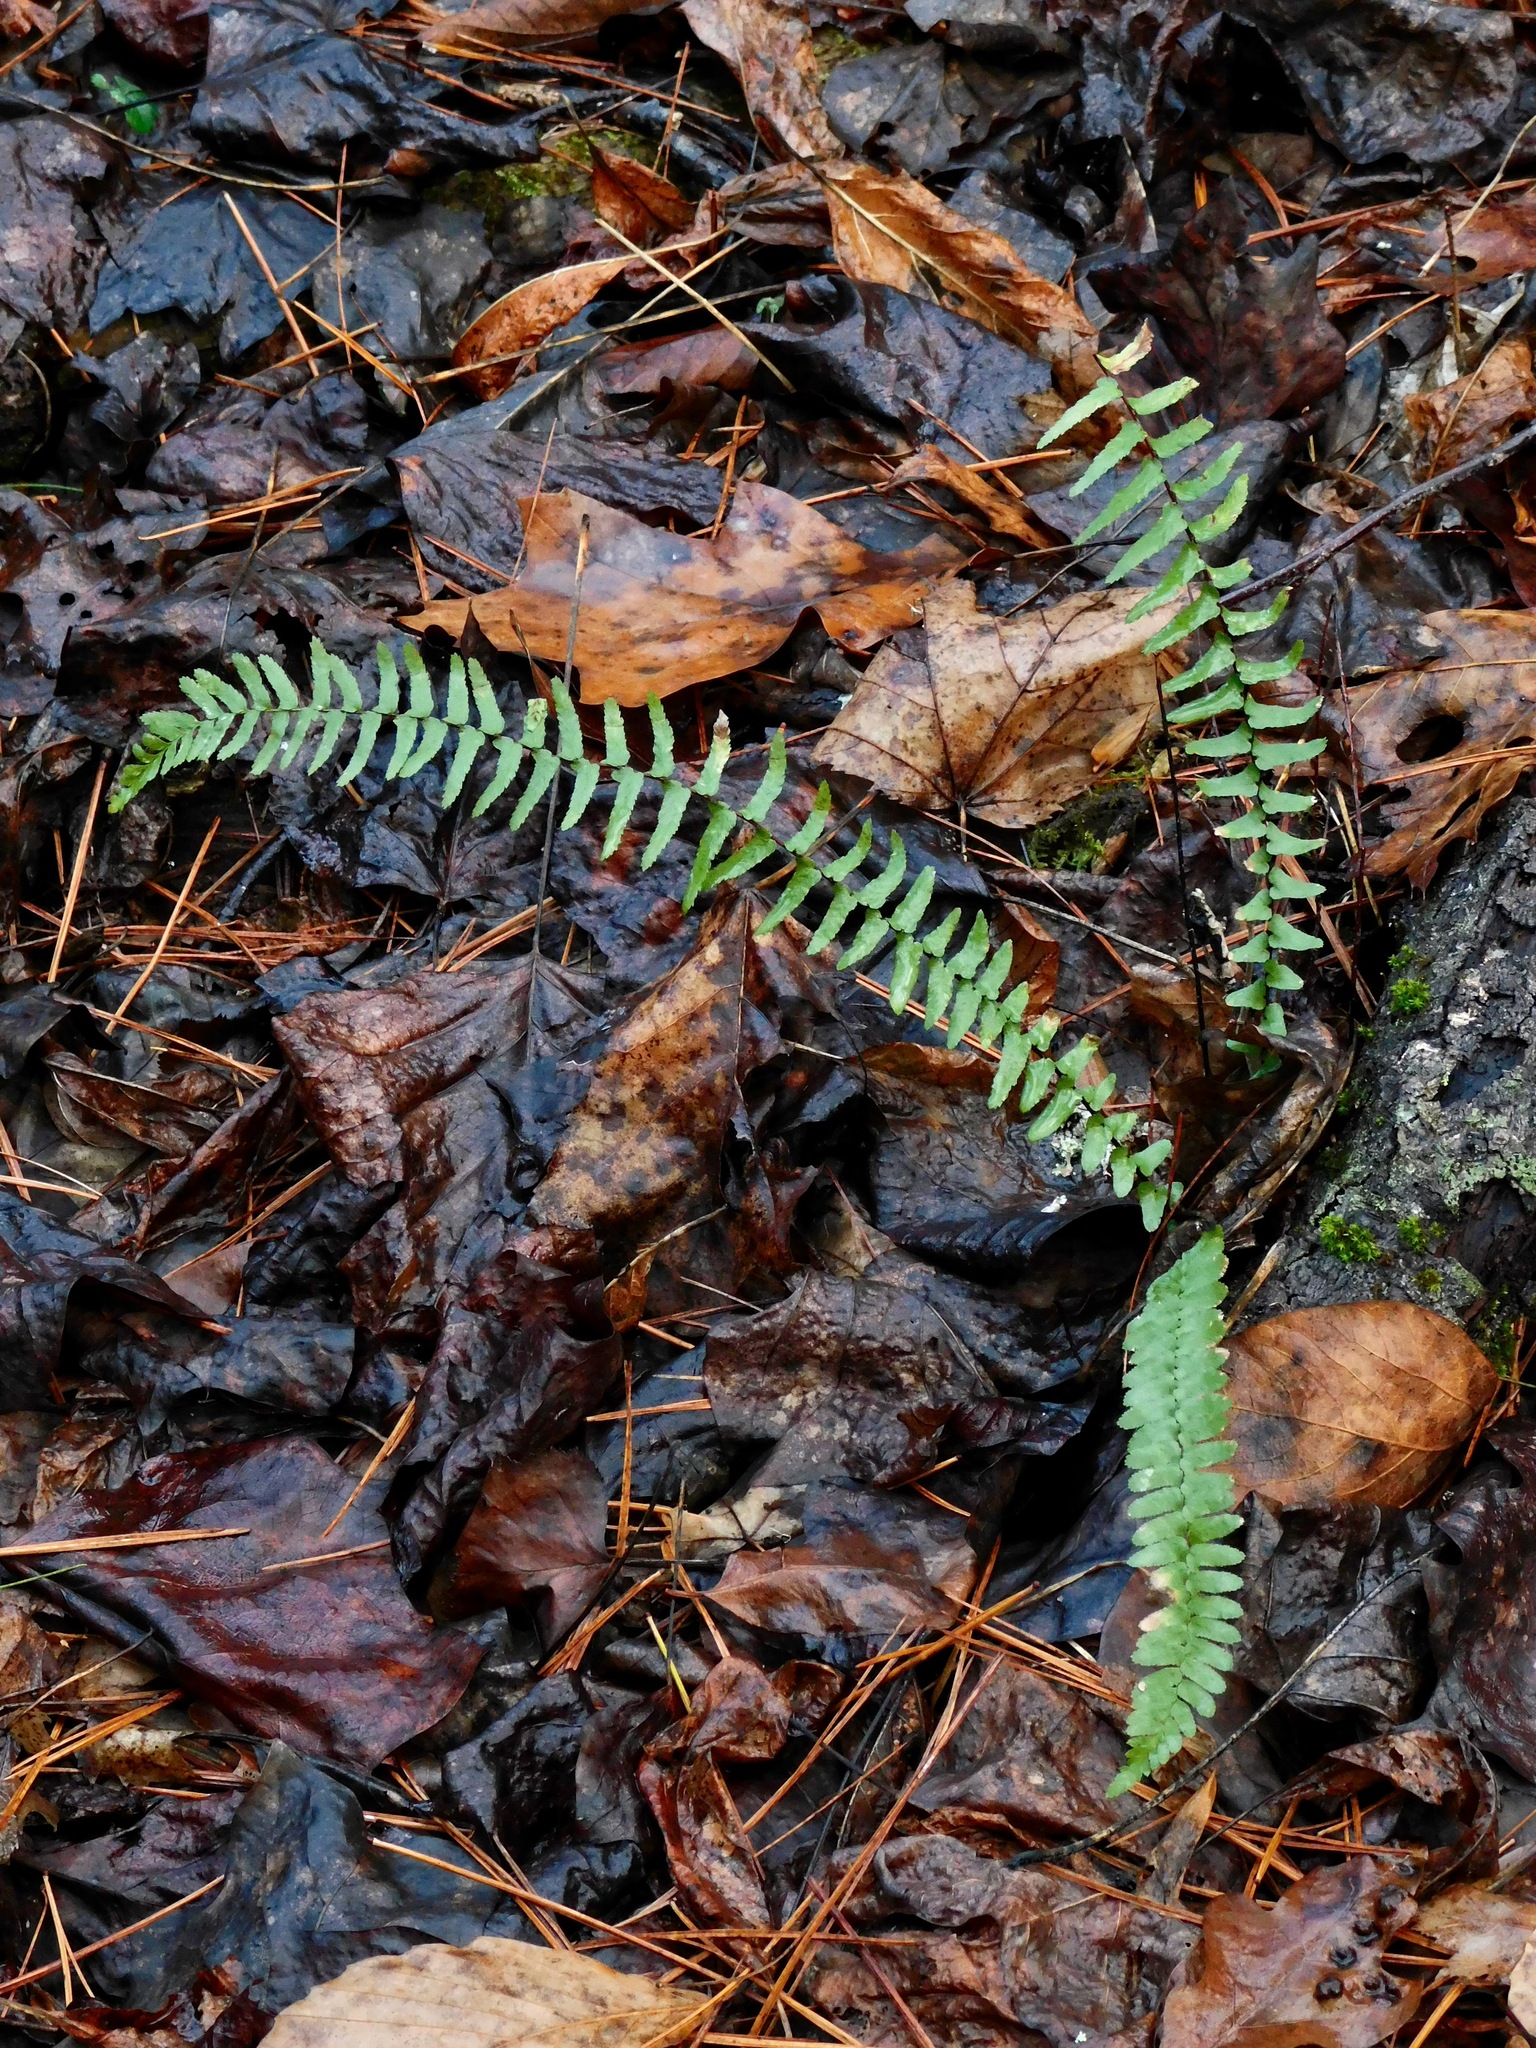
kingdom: Plantae
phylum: Tracheophyta
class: Polypodiopsida
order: Polypodiales
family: Aspleniaceae
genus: Asplenium
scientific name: Asplenium platyneuron
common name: Ebony spleenwort
